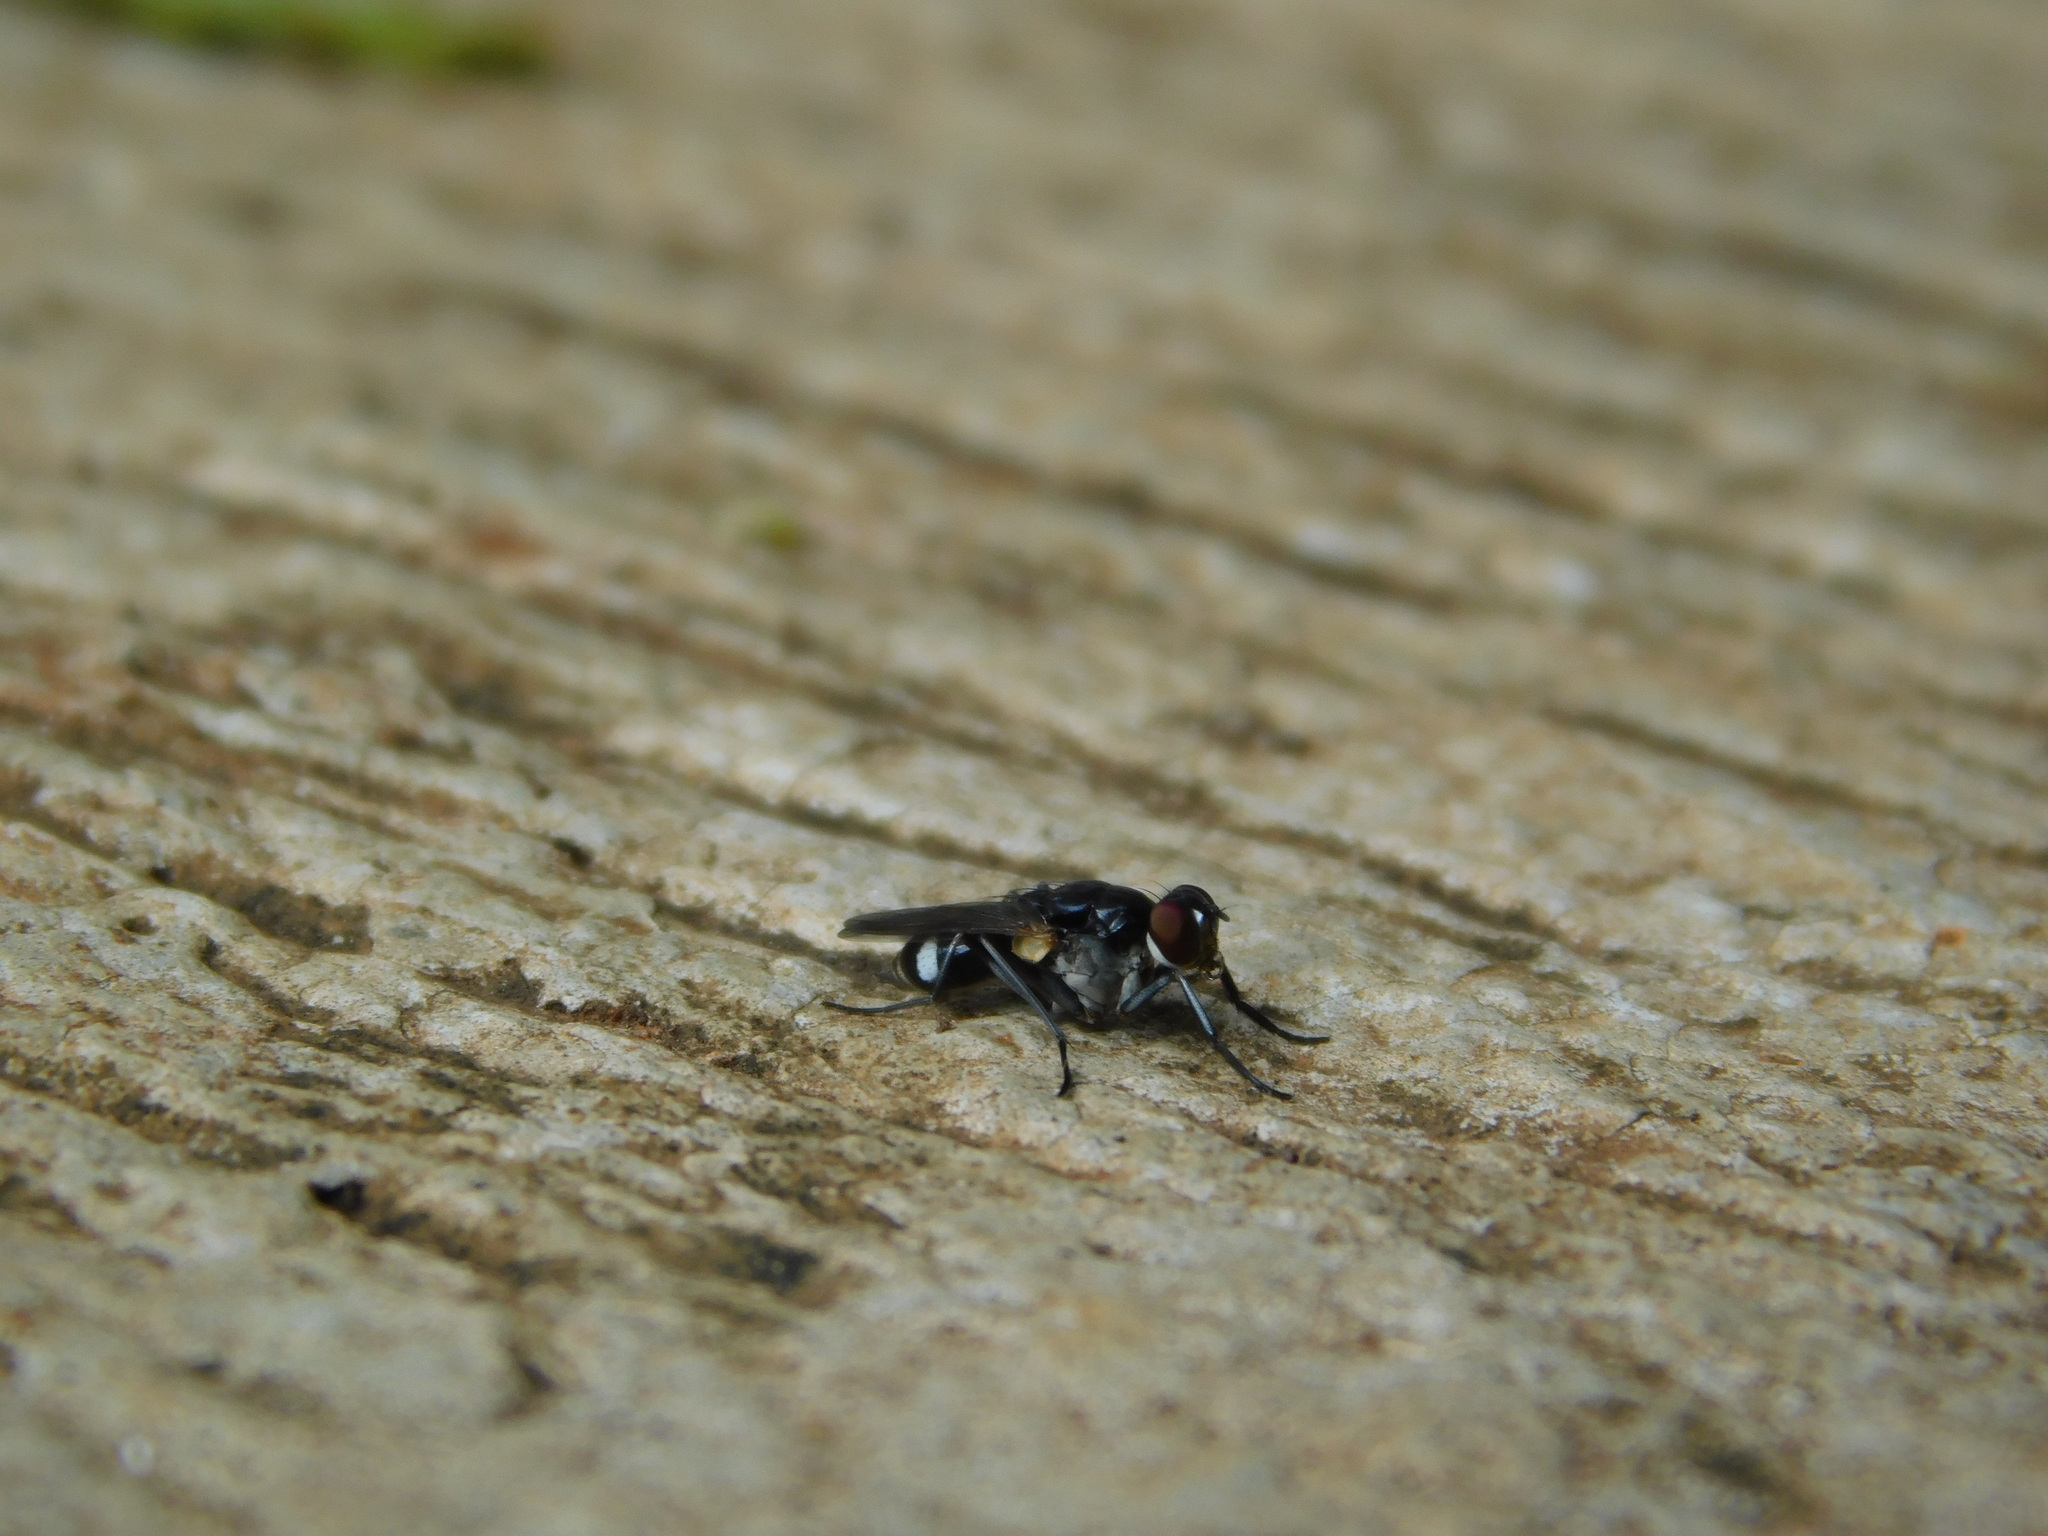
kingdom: Animalia
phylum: Arthropoda
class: Insecta
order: Diptera
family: Muscidae
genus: Lispe
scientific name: Lispe binotata
